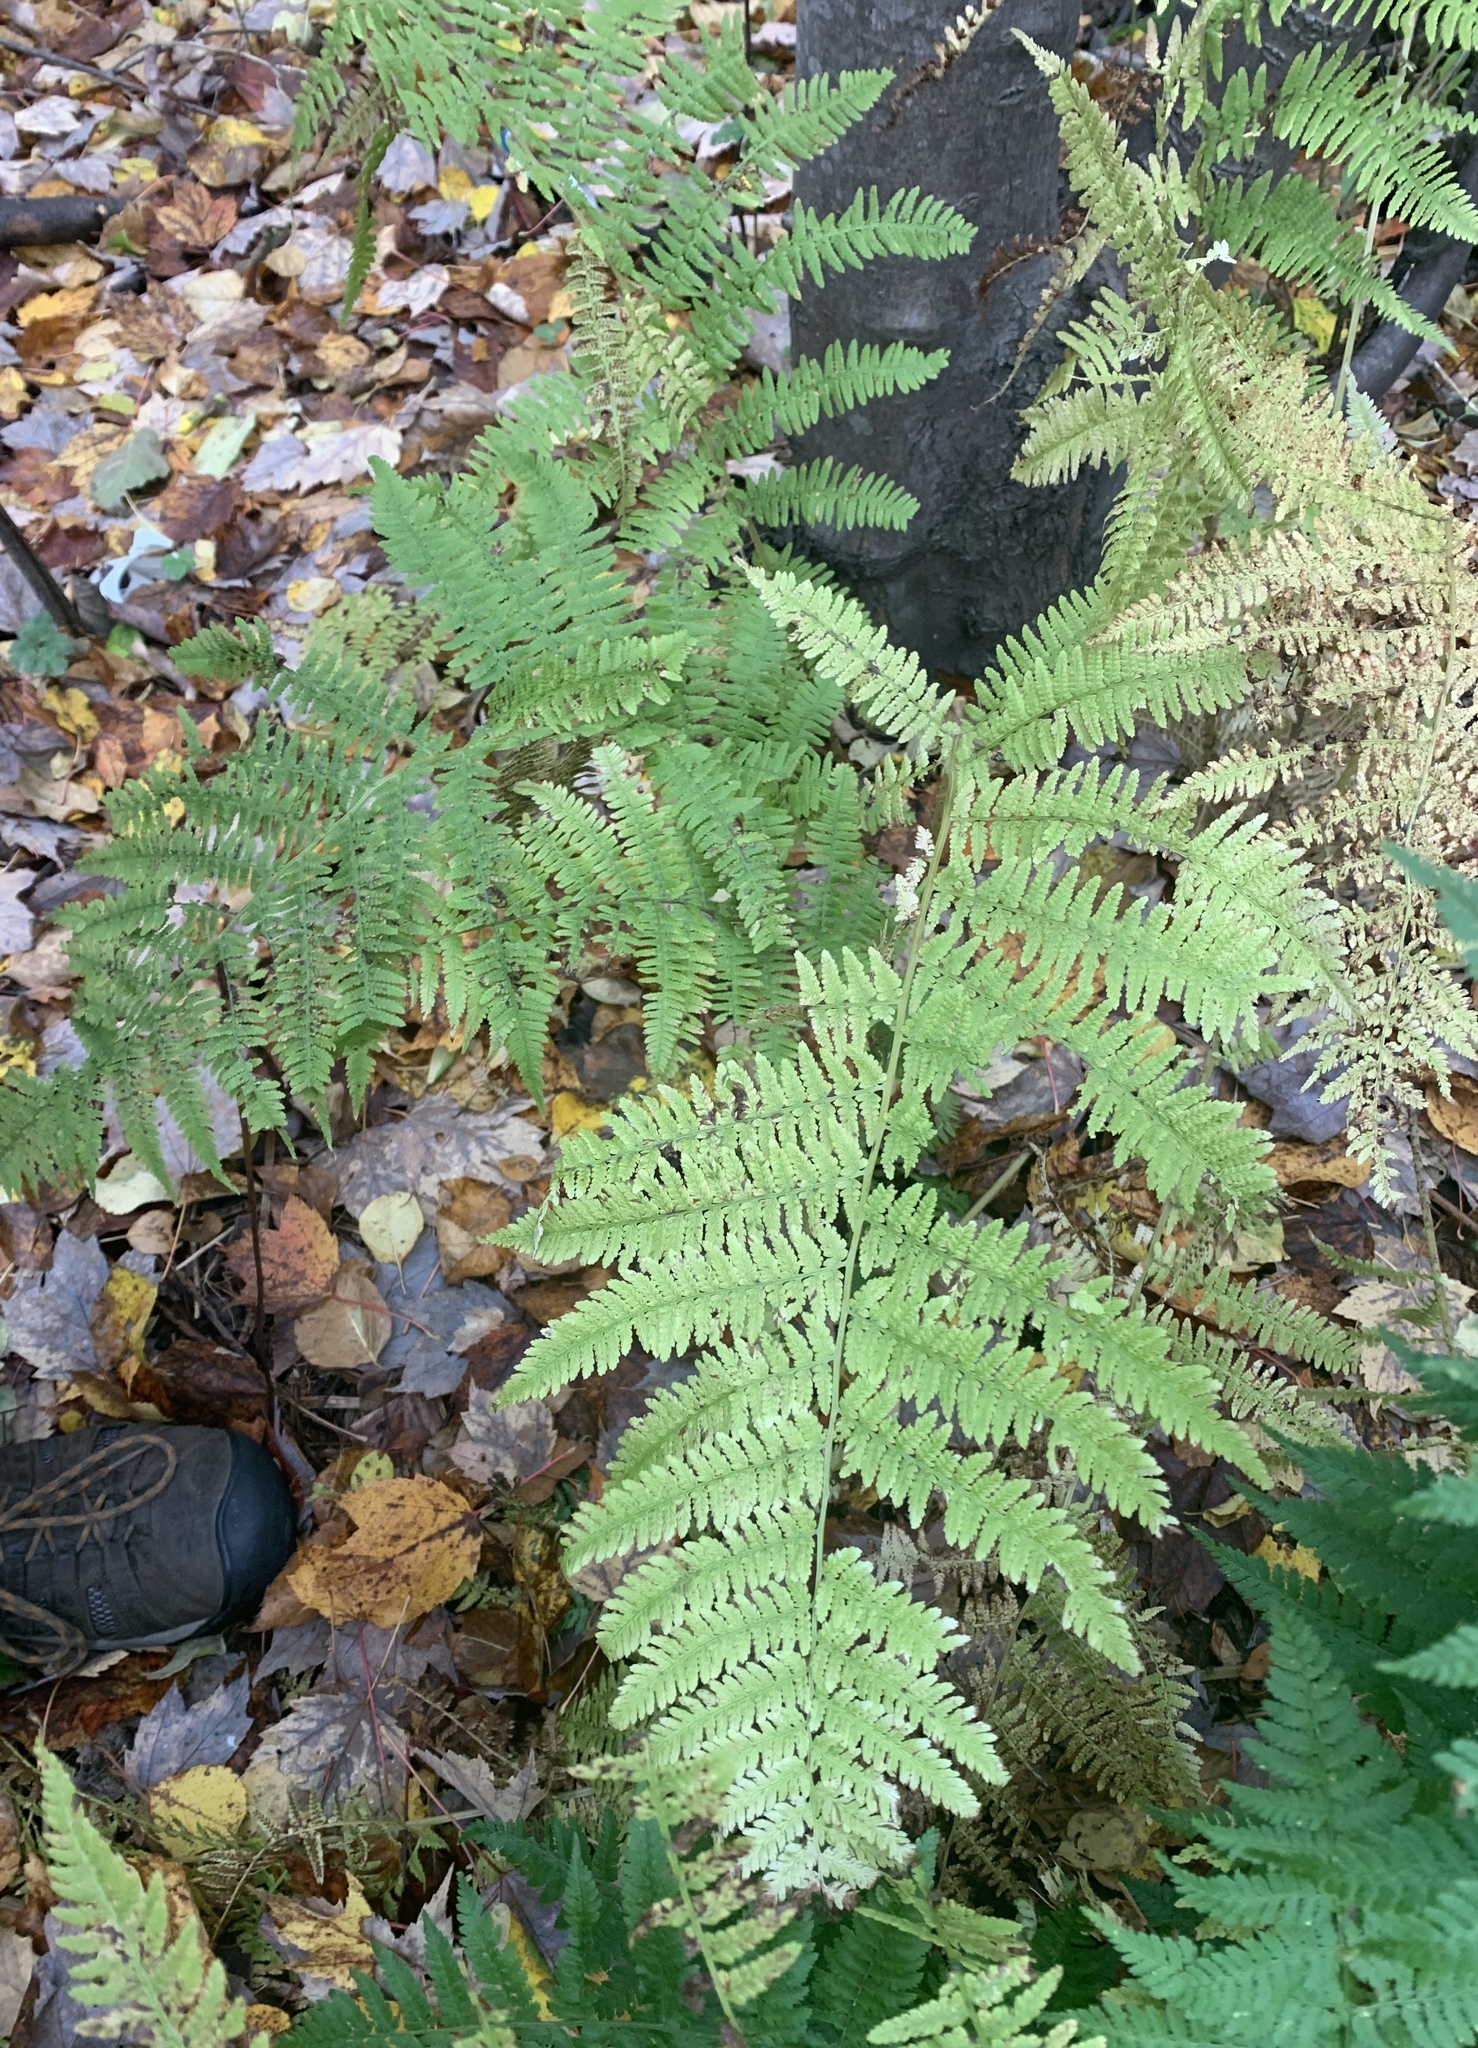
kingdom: Plantae
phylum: Tracheophyta
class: Polypodiopsida
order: Polypodiales
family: Athyriaceae
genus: Athyrium
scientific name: Athyrium angustum
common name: Northern lady fern
